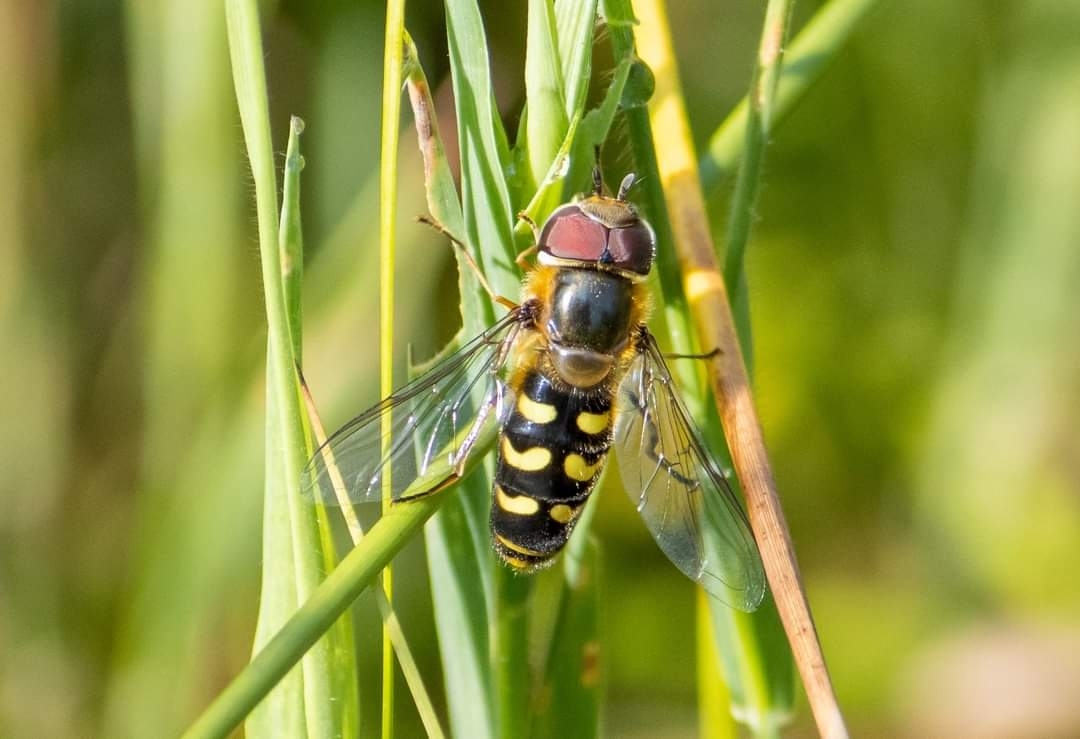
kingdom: Animalia
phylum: Arthropoda
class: Insecta
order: Diptera
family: Syrphidae
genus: Scaeva
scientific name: Scaeva selenitica
